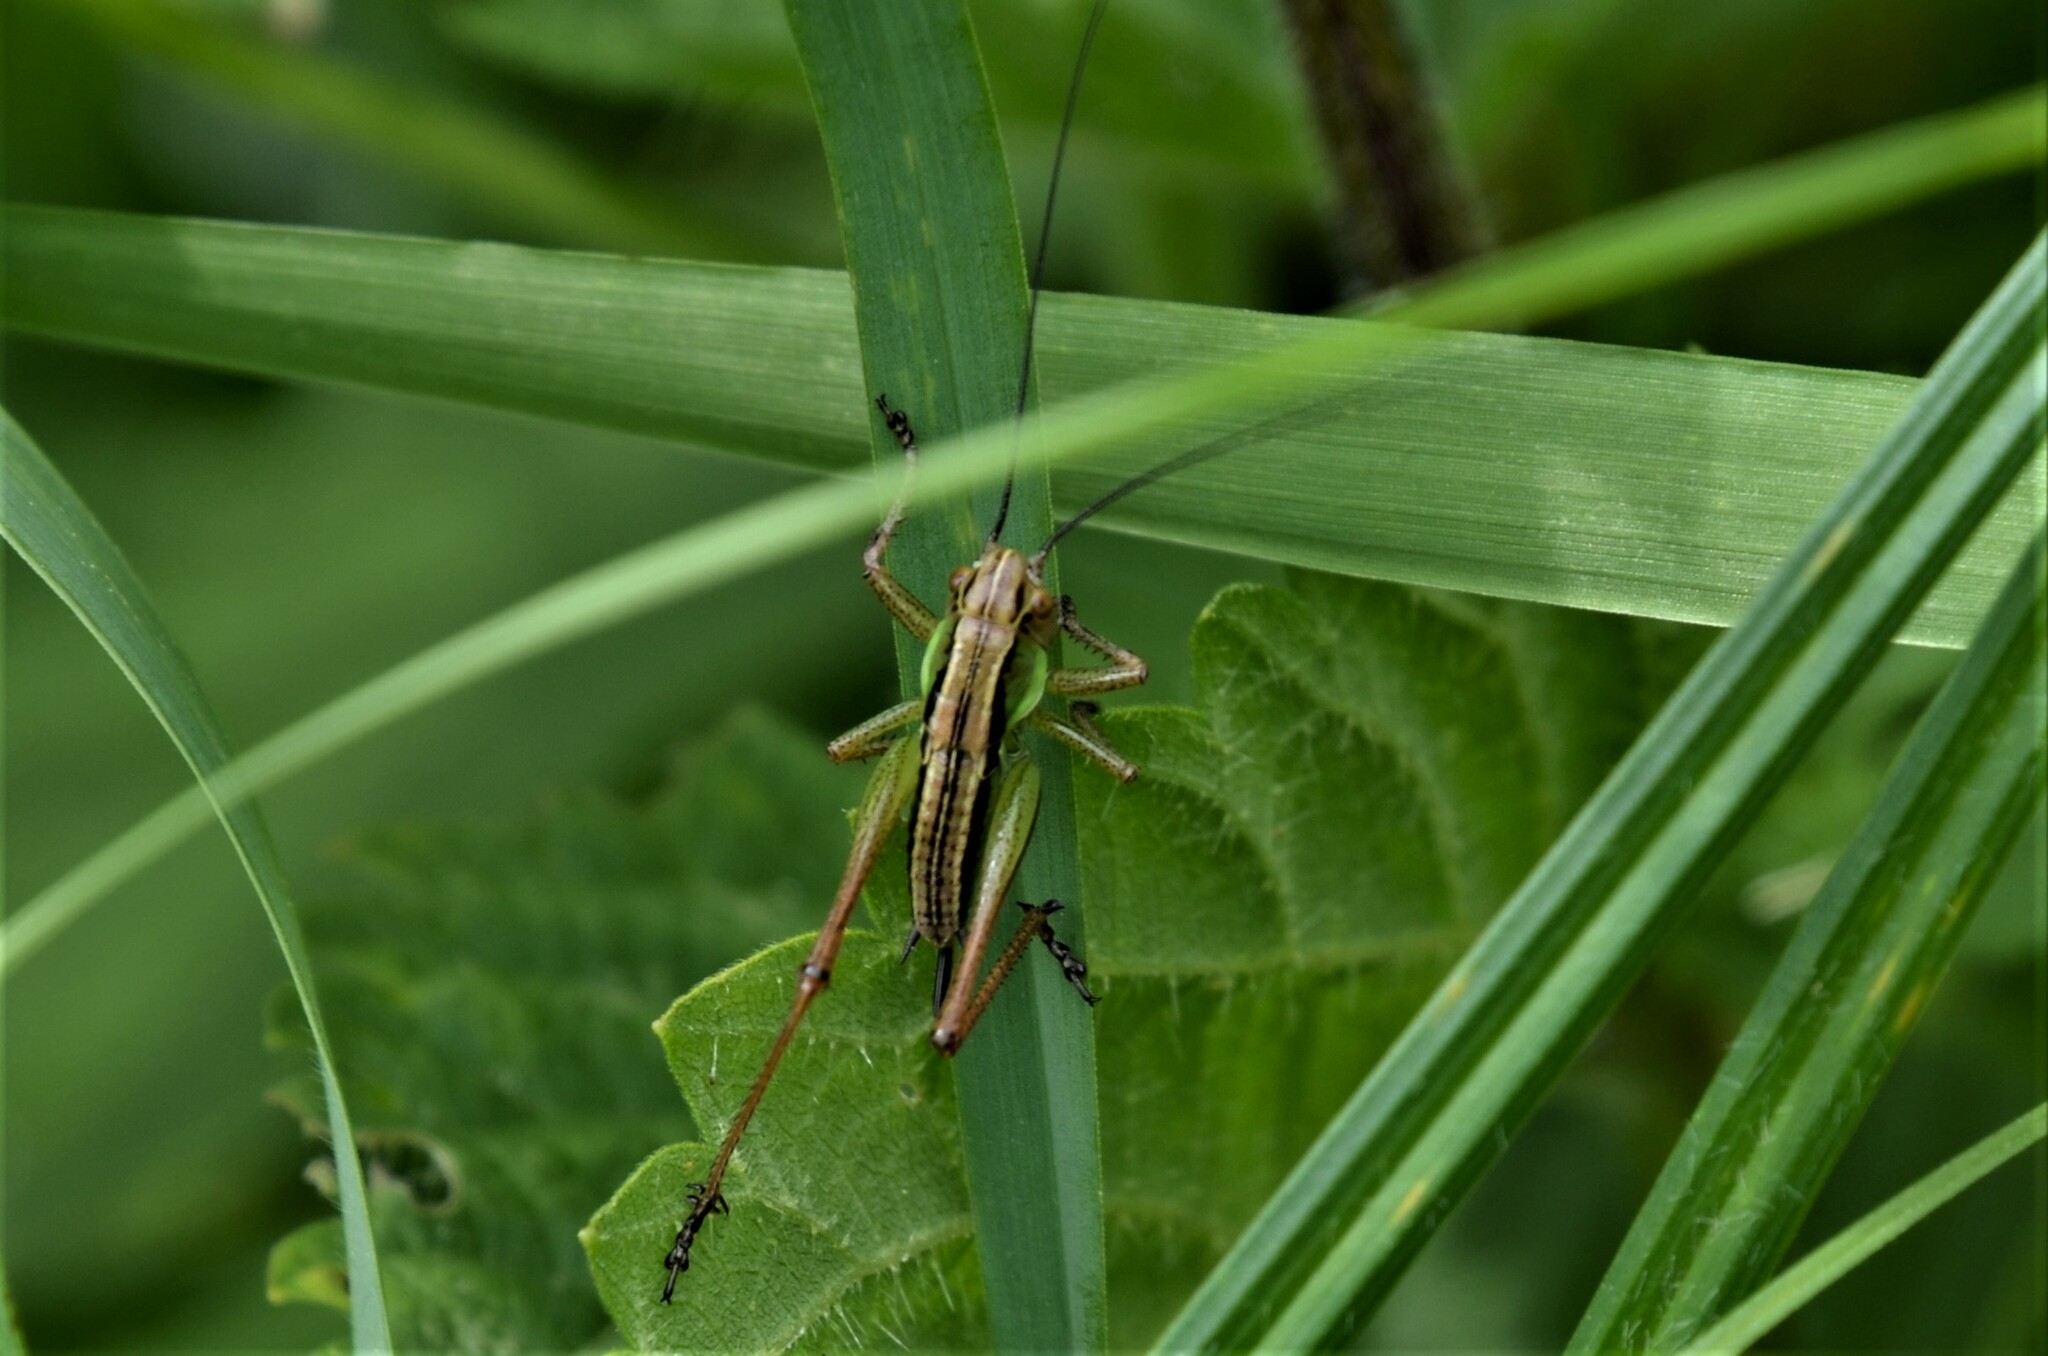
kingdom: Animalia
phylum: Arthropoda
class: Insecta
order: Orthoptera
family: Tettigoniidae
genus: Roeseliana
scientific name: Roeseliana roeselii
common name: Roesel's bush cricket
